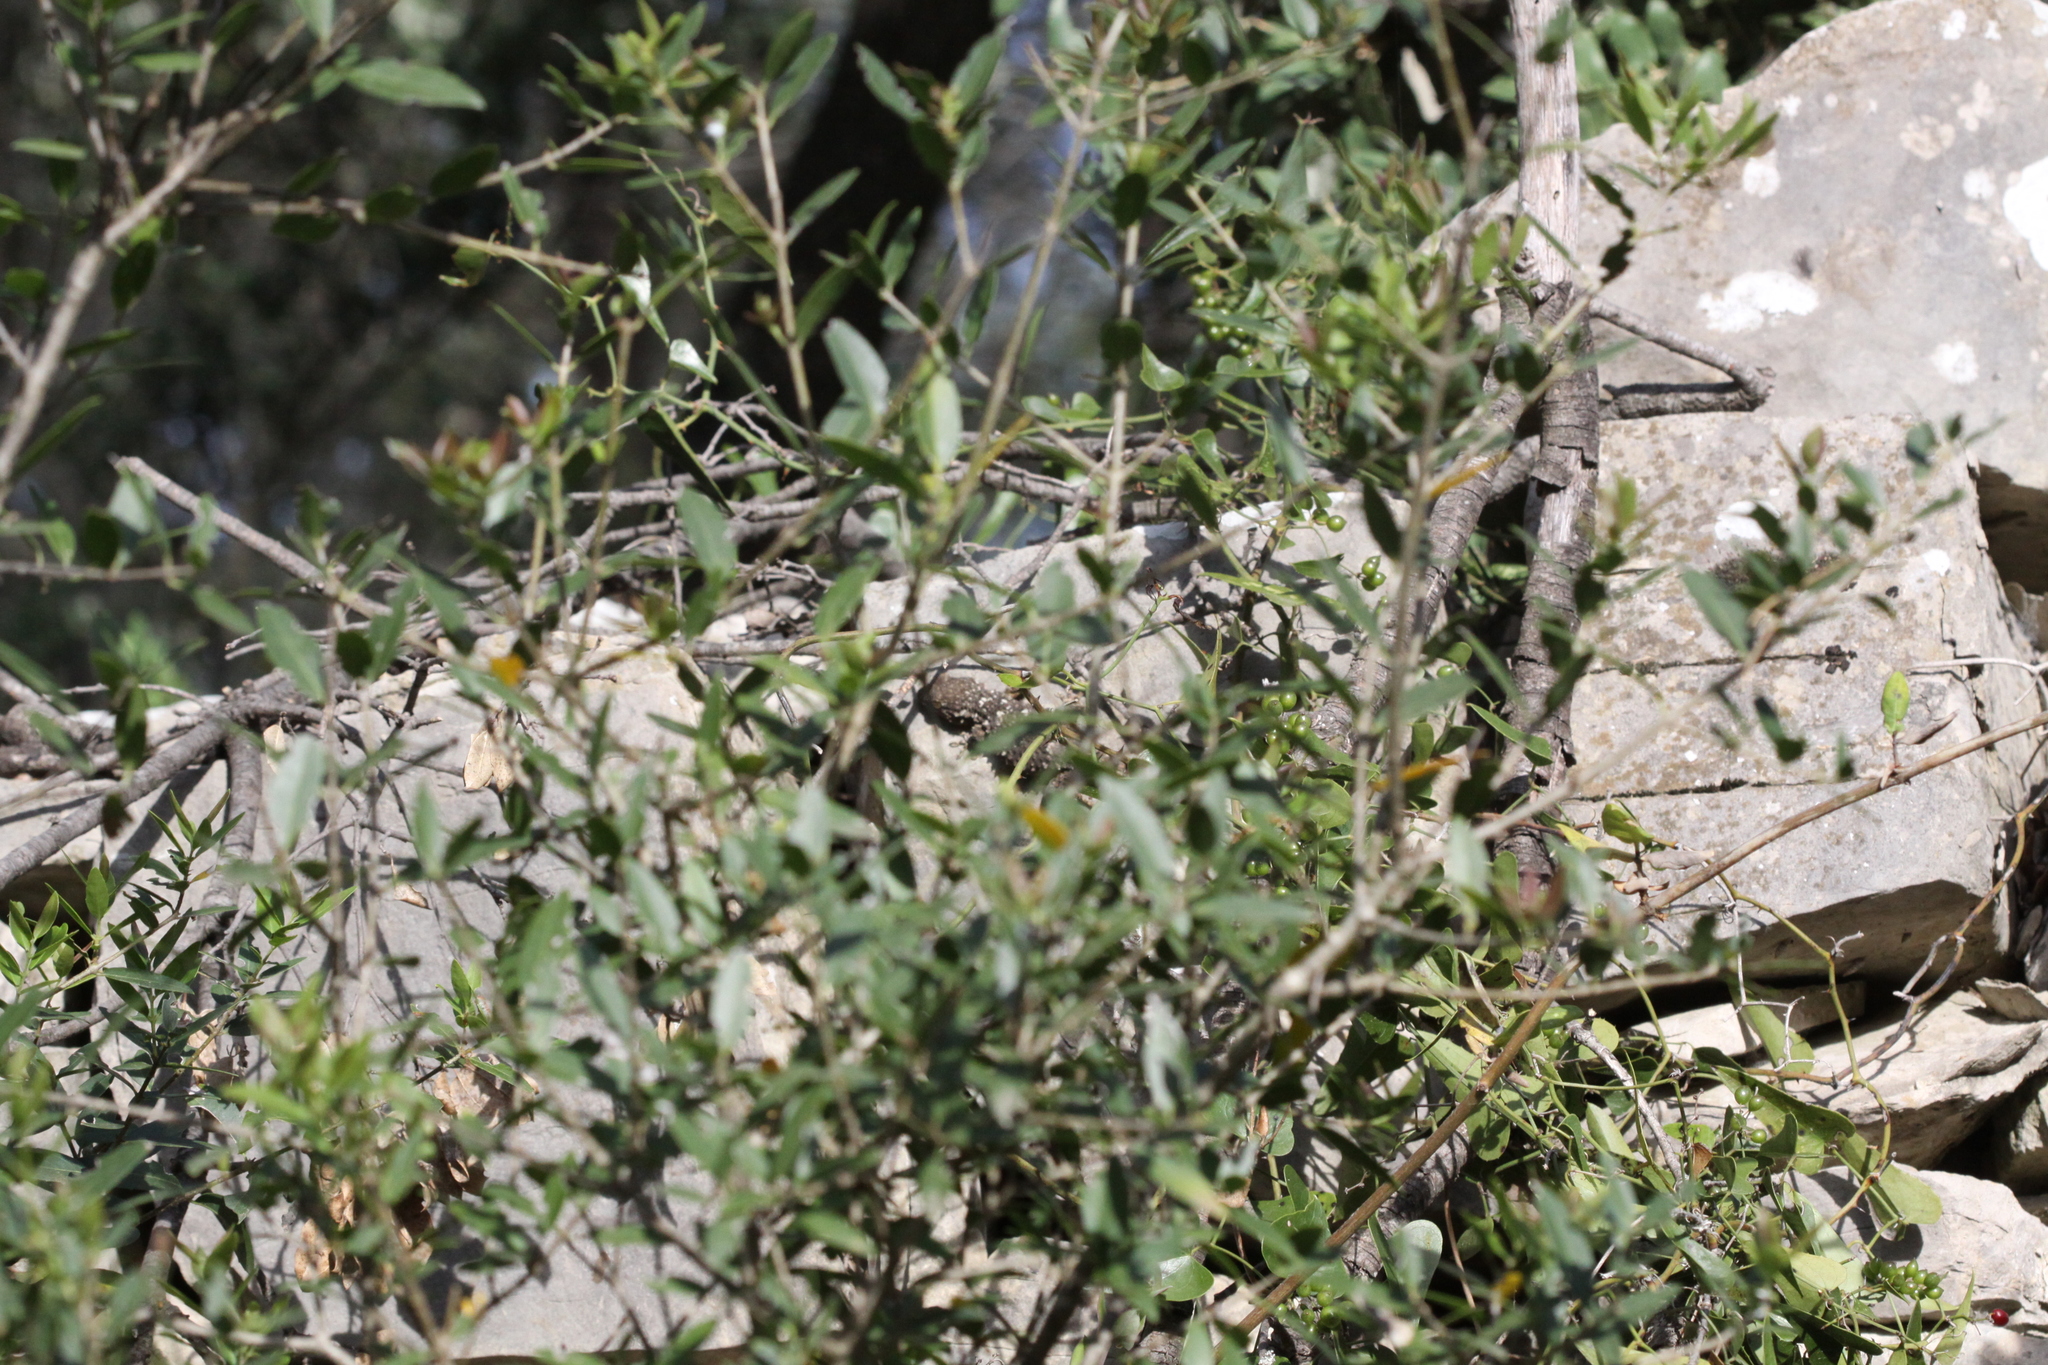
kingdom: Animalia
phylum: Chordata
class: Squamata
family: Phyllodactylidae
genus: Tarentola
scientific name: Tarentola mauritanica
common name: Moorish gecko
